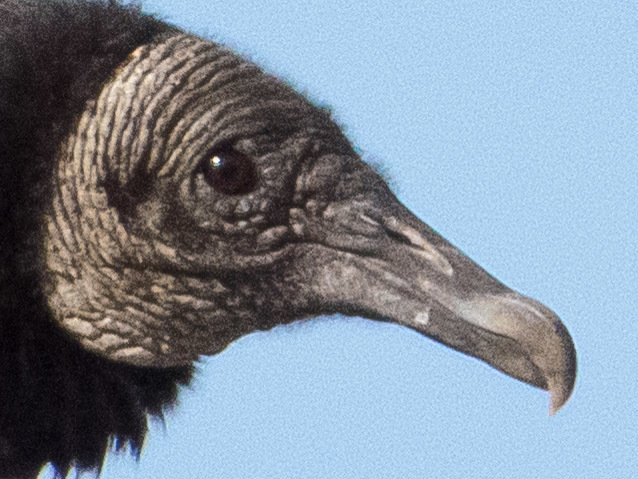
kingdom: Animalia
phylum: Chordata
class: Aves
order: Accipitriformes
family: Cathartidae
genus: Coragyps
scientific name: Coragyps atratus
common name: Black vulture
